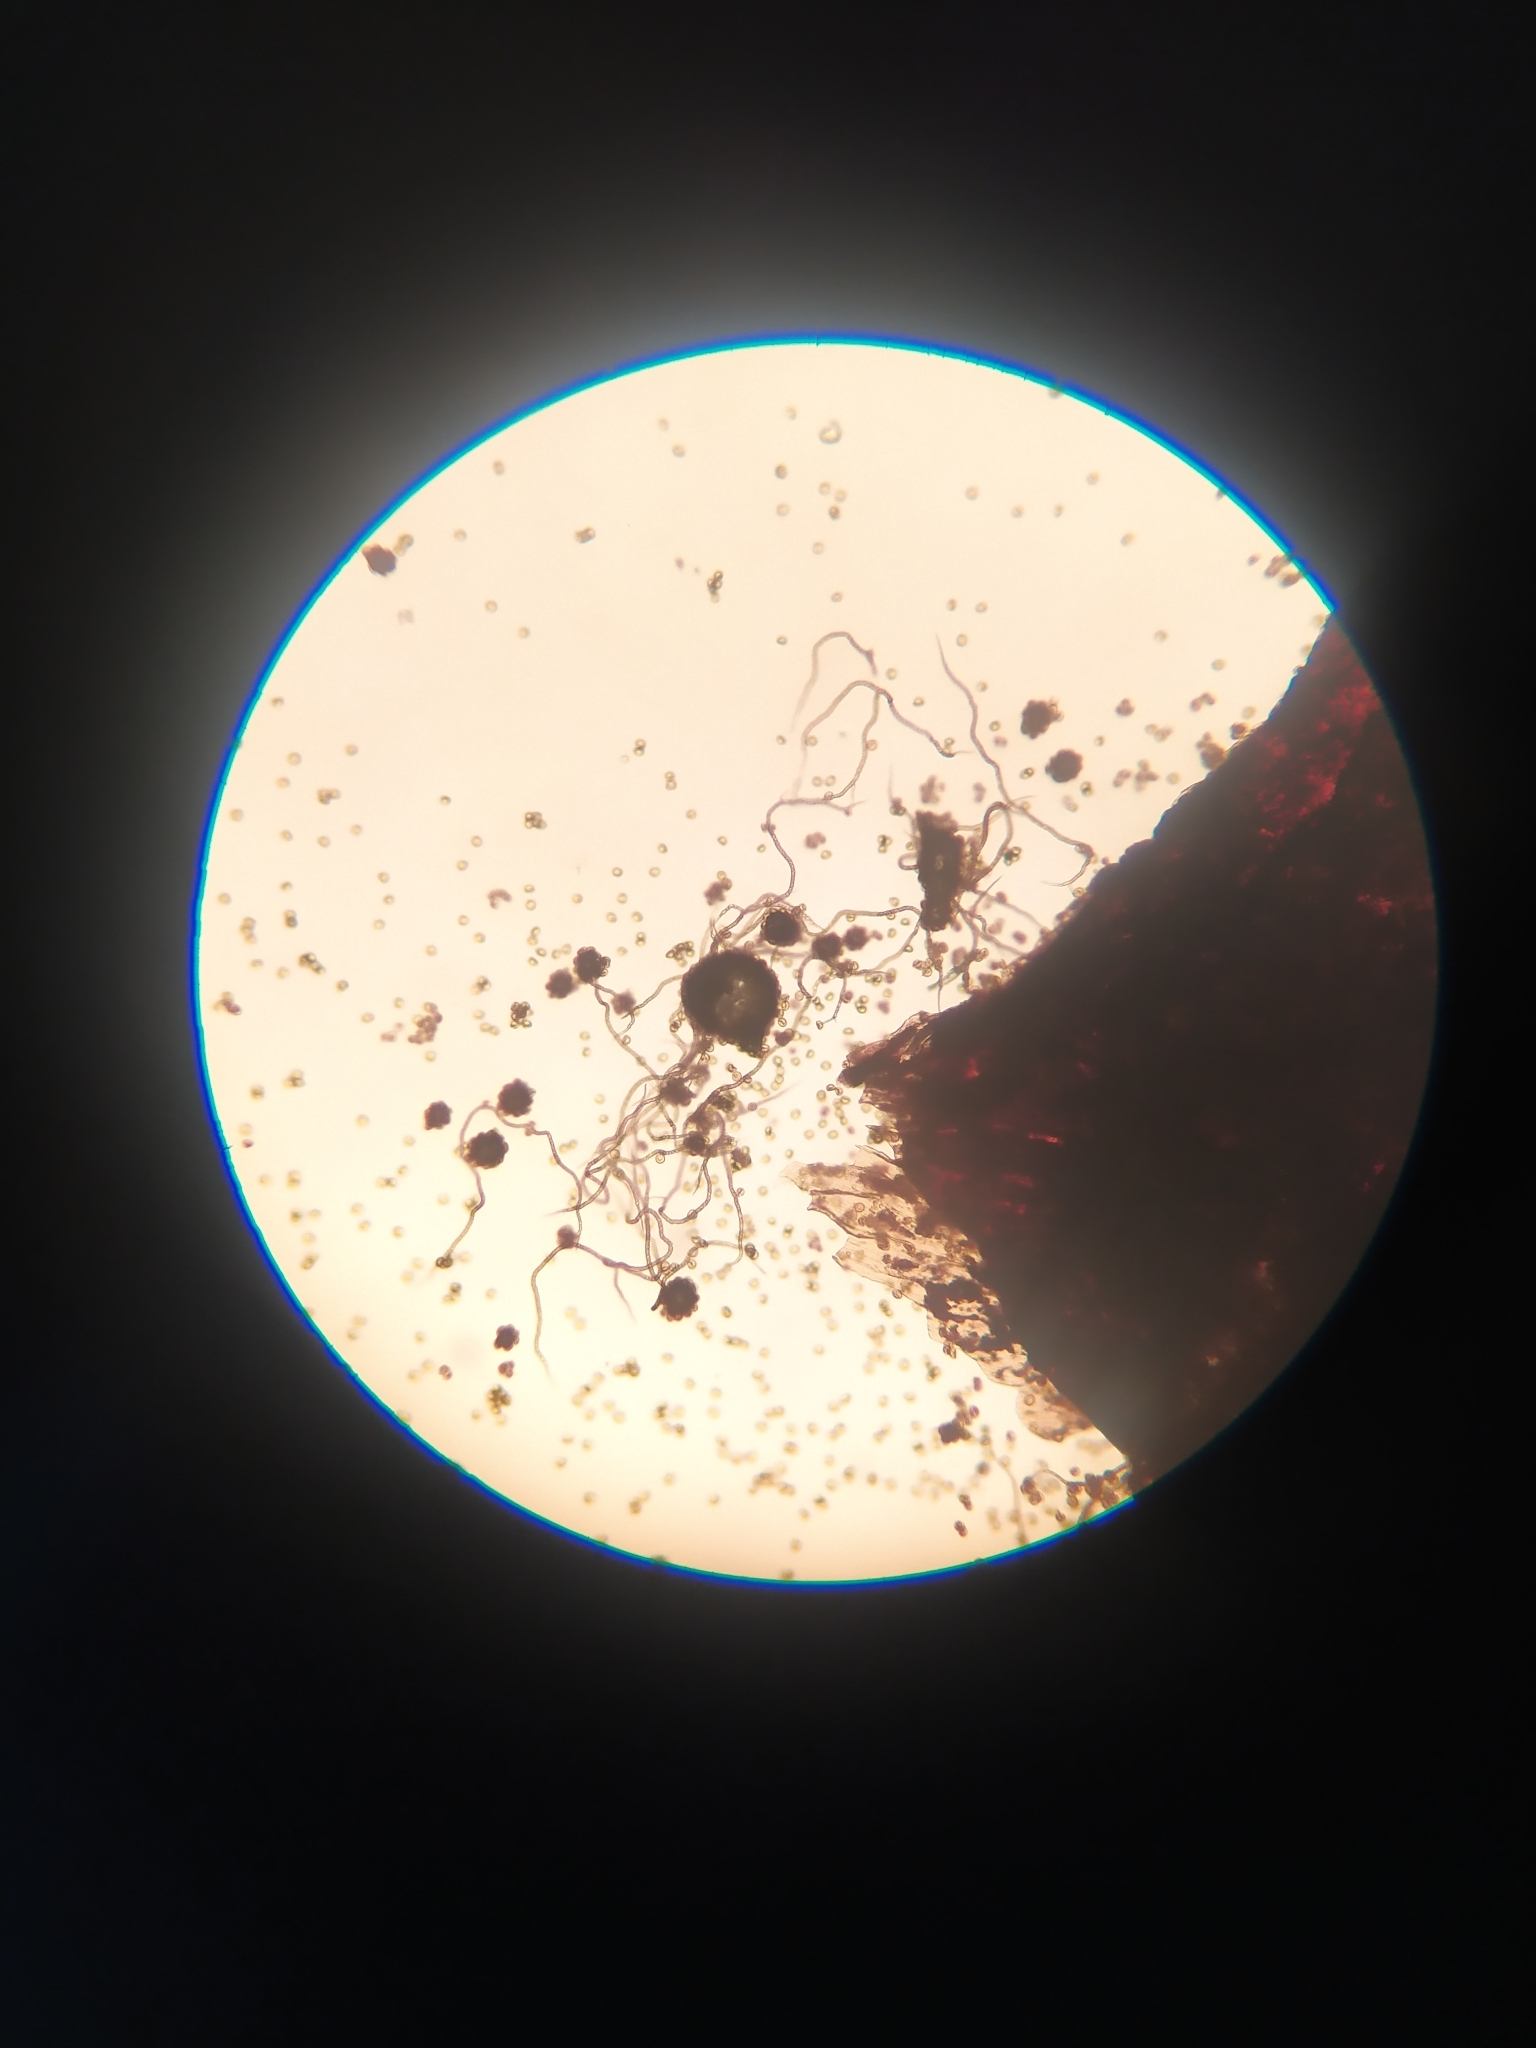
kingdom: Protozoa
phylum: Mycetozoa
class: Myxomycetes
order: Trichiales
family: Trichiaceae
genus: Metatrichia
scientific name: Metatrichia floriformis
